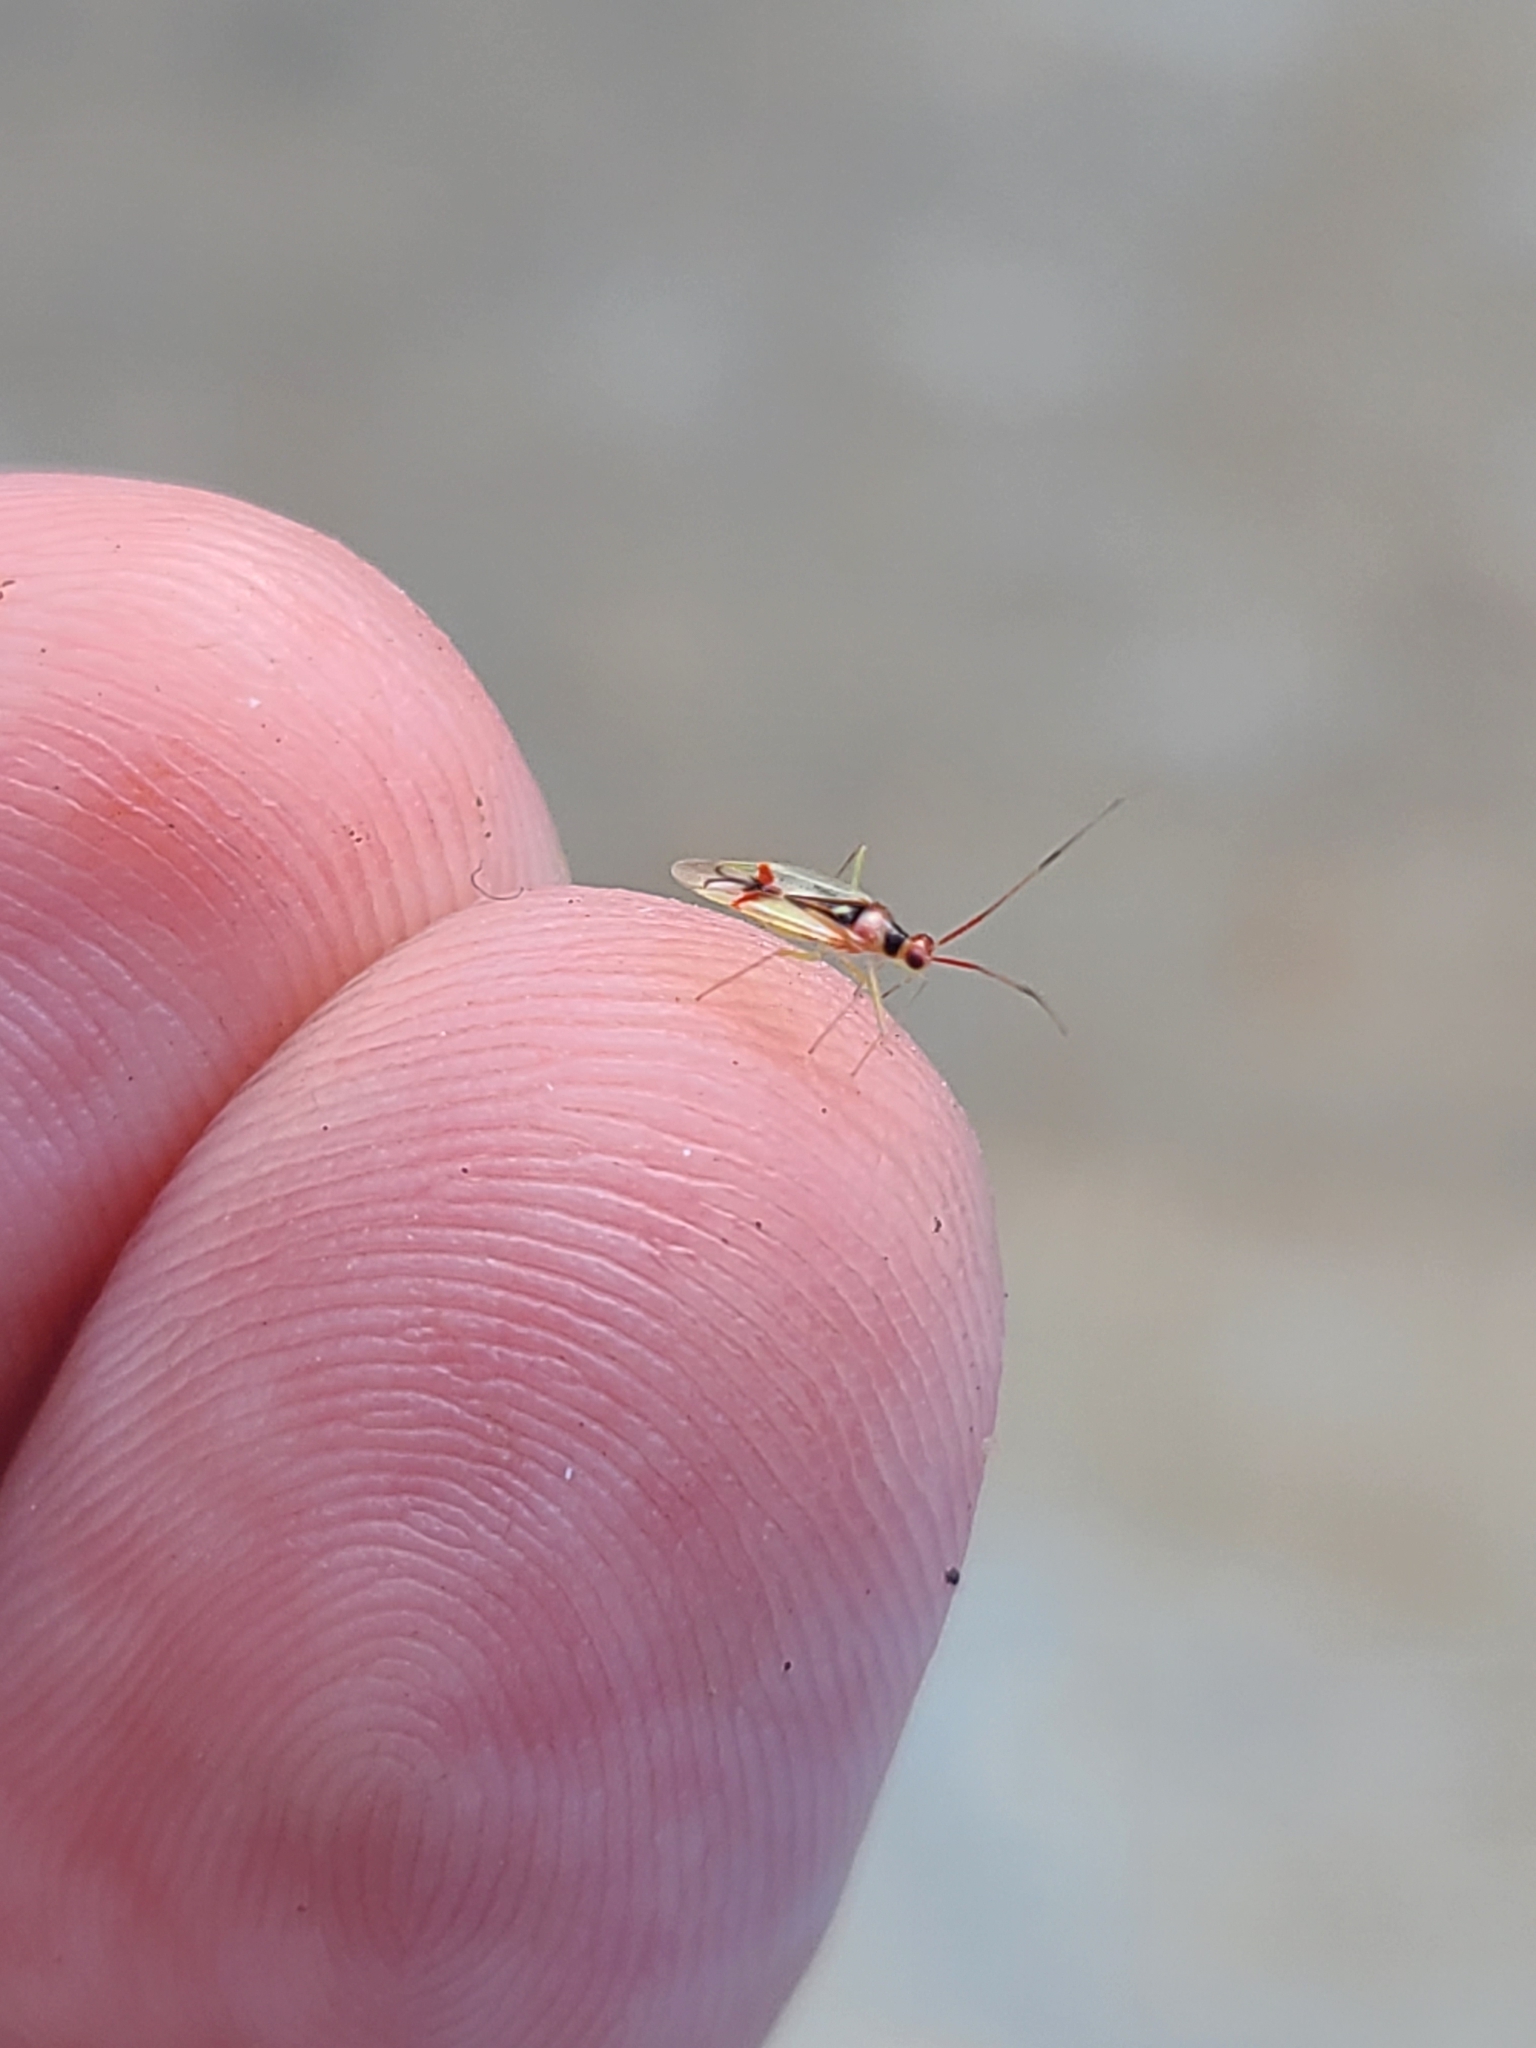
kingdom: Animalia
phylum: Arthropoda
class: Insecta
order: Hemiptera
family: Miridae
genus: Hyaliodes
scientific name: Hyaliodes harti
